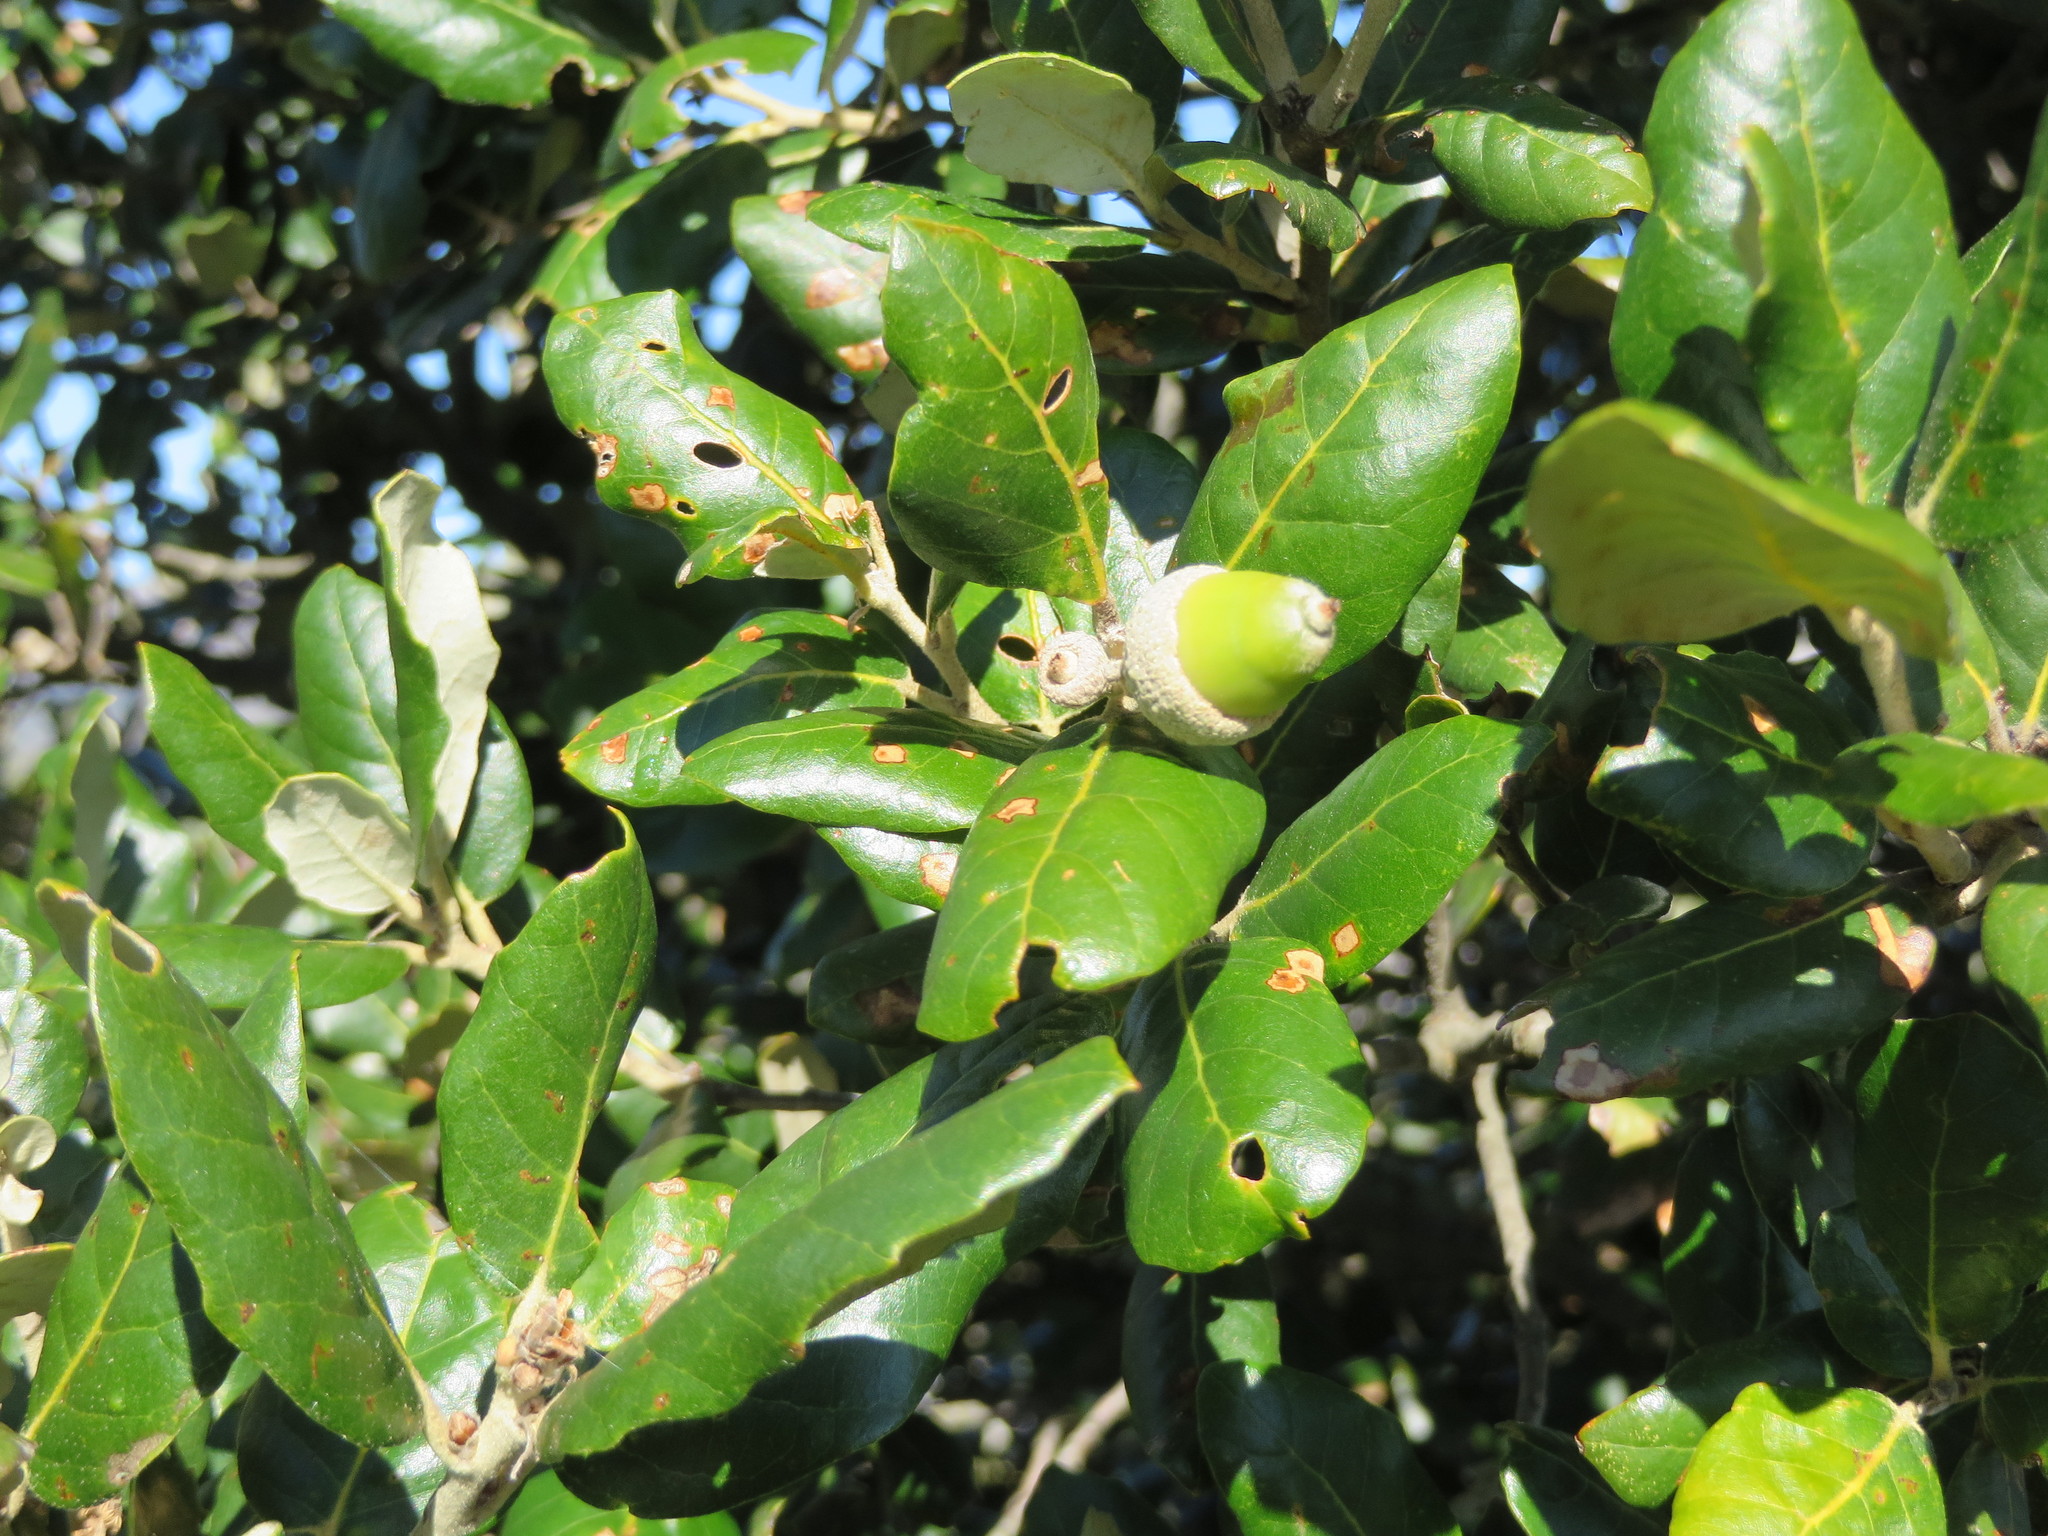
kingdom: Plantae
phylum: Tracheophyta
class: Magnoliopsida
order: Fagales
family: Fagaceae
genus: Quercus
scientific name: Quercus ilex
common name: Evergreen oak
